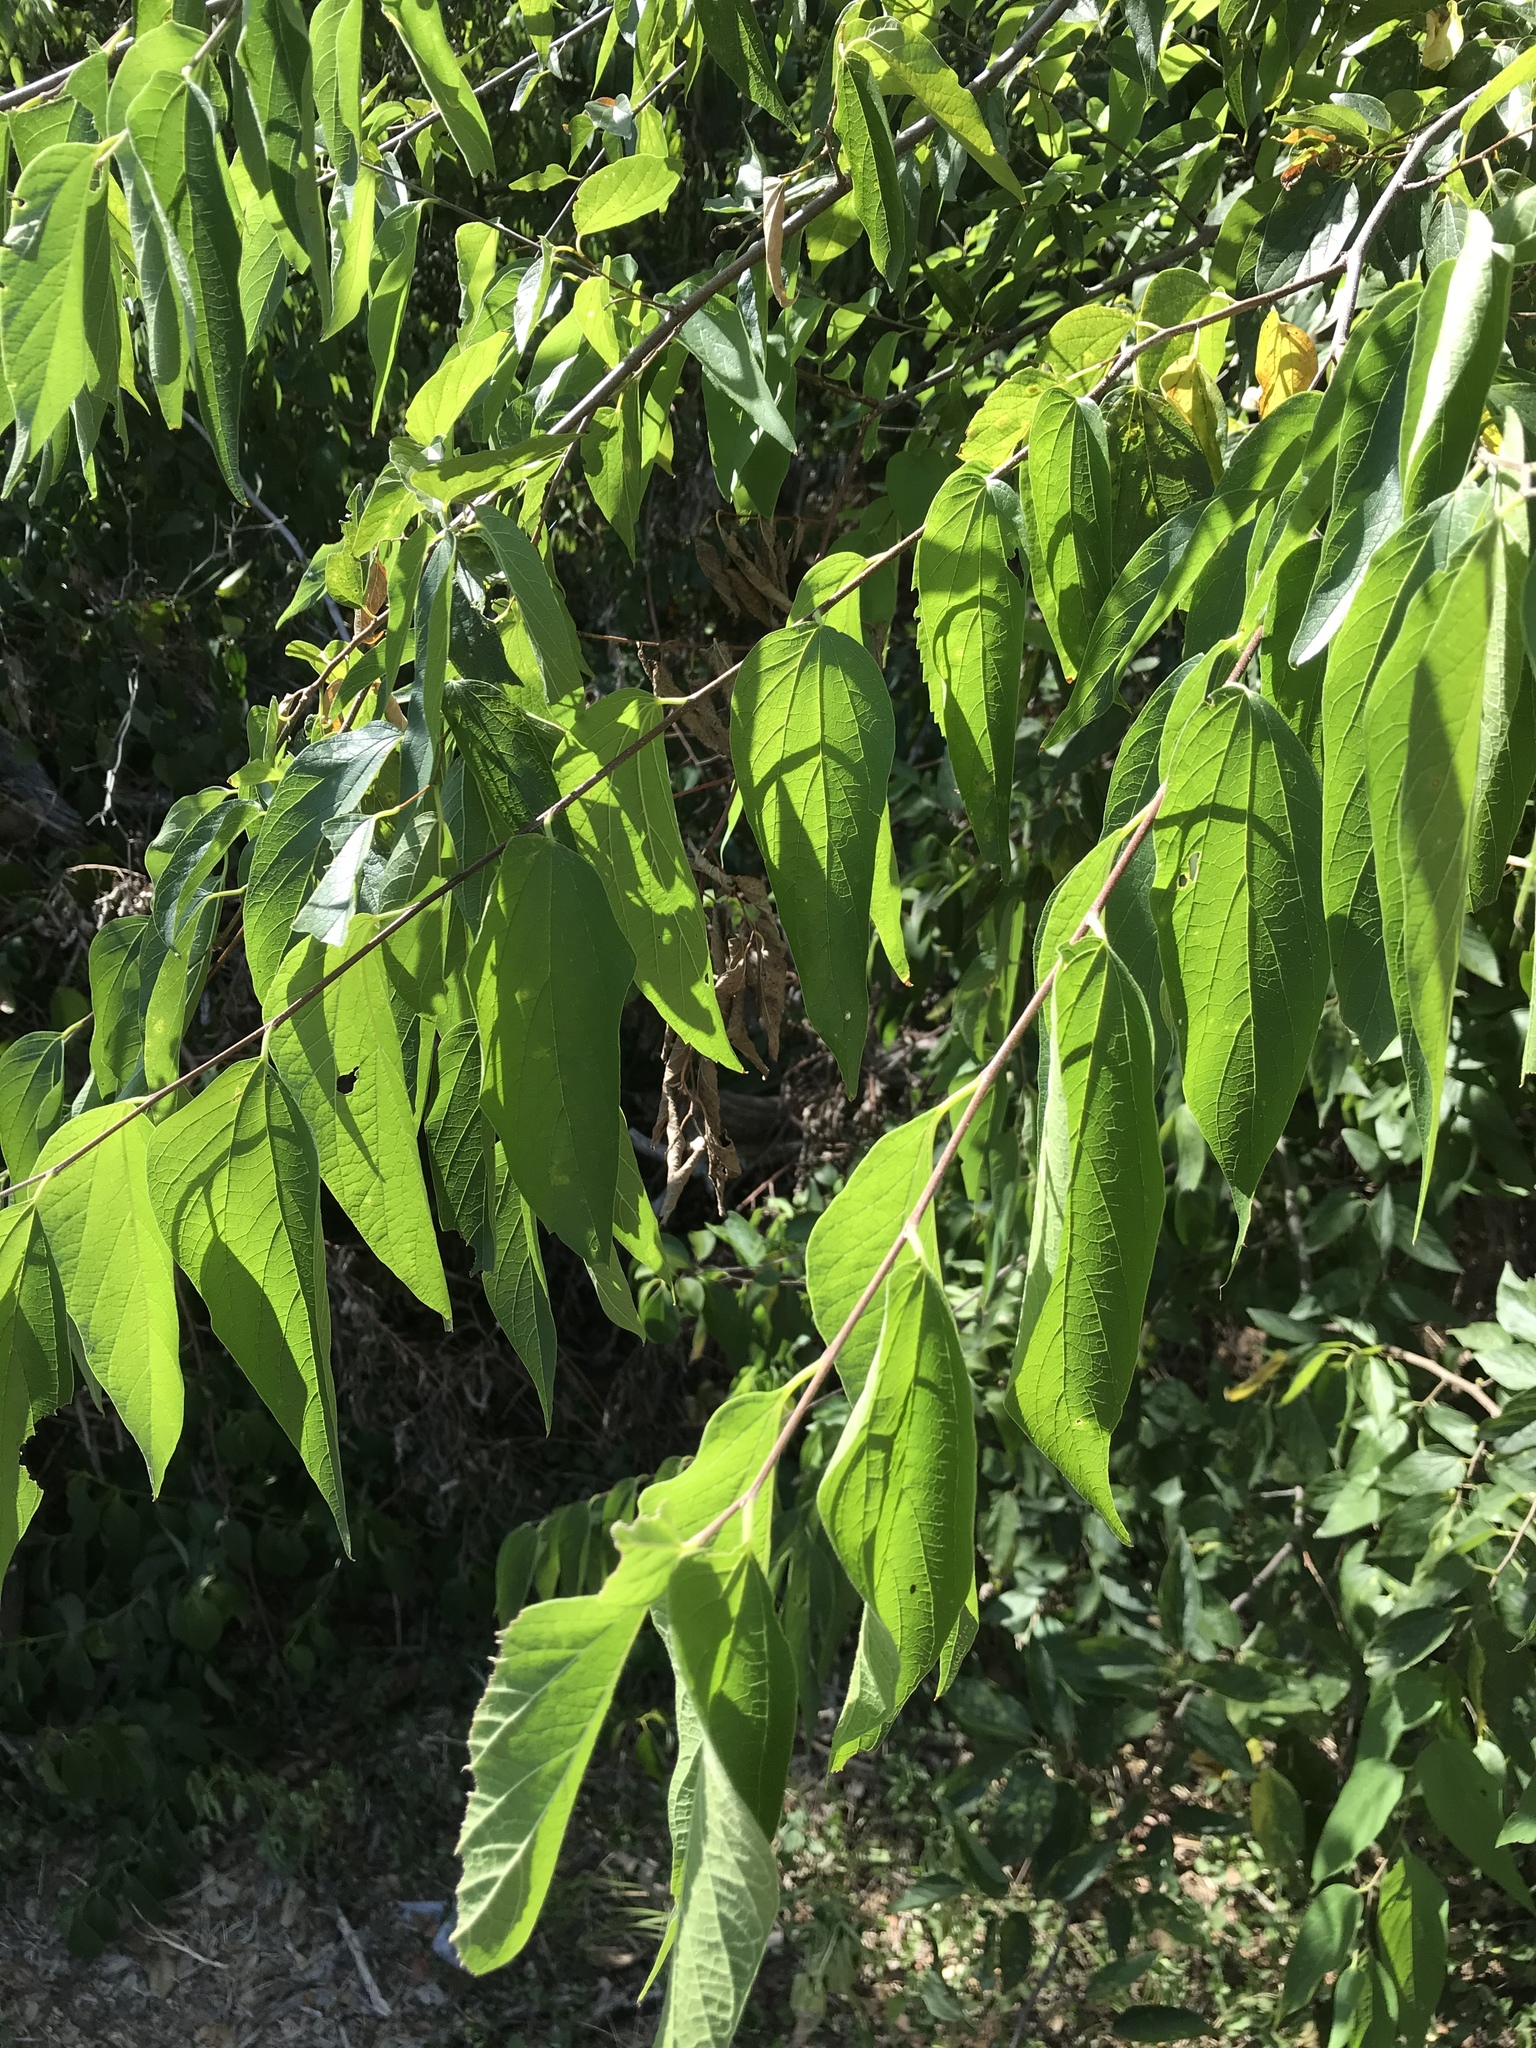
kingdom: Plantae
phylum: Tracheophyta
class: Magnoliopsida
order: Rosales
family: Cannabaceae
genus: Celtis
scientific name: Celtis laevigata
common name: Sugarberry
